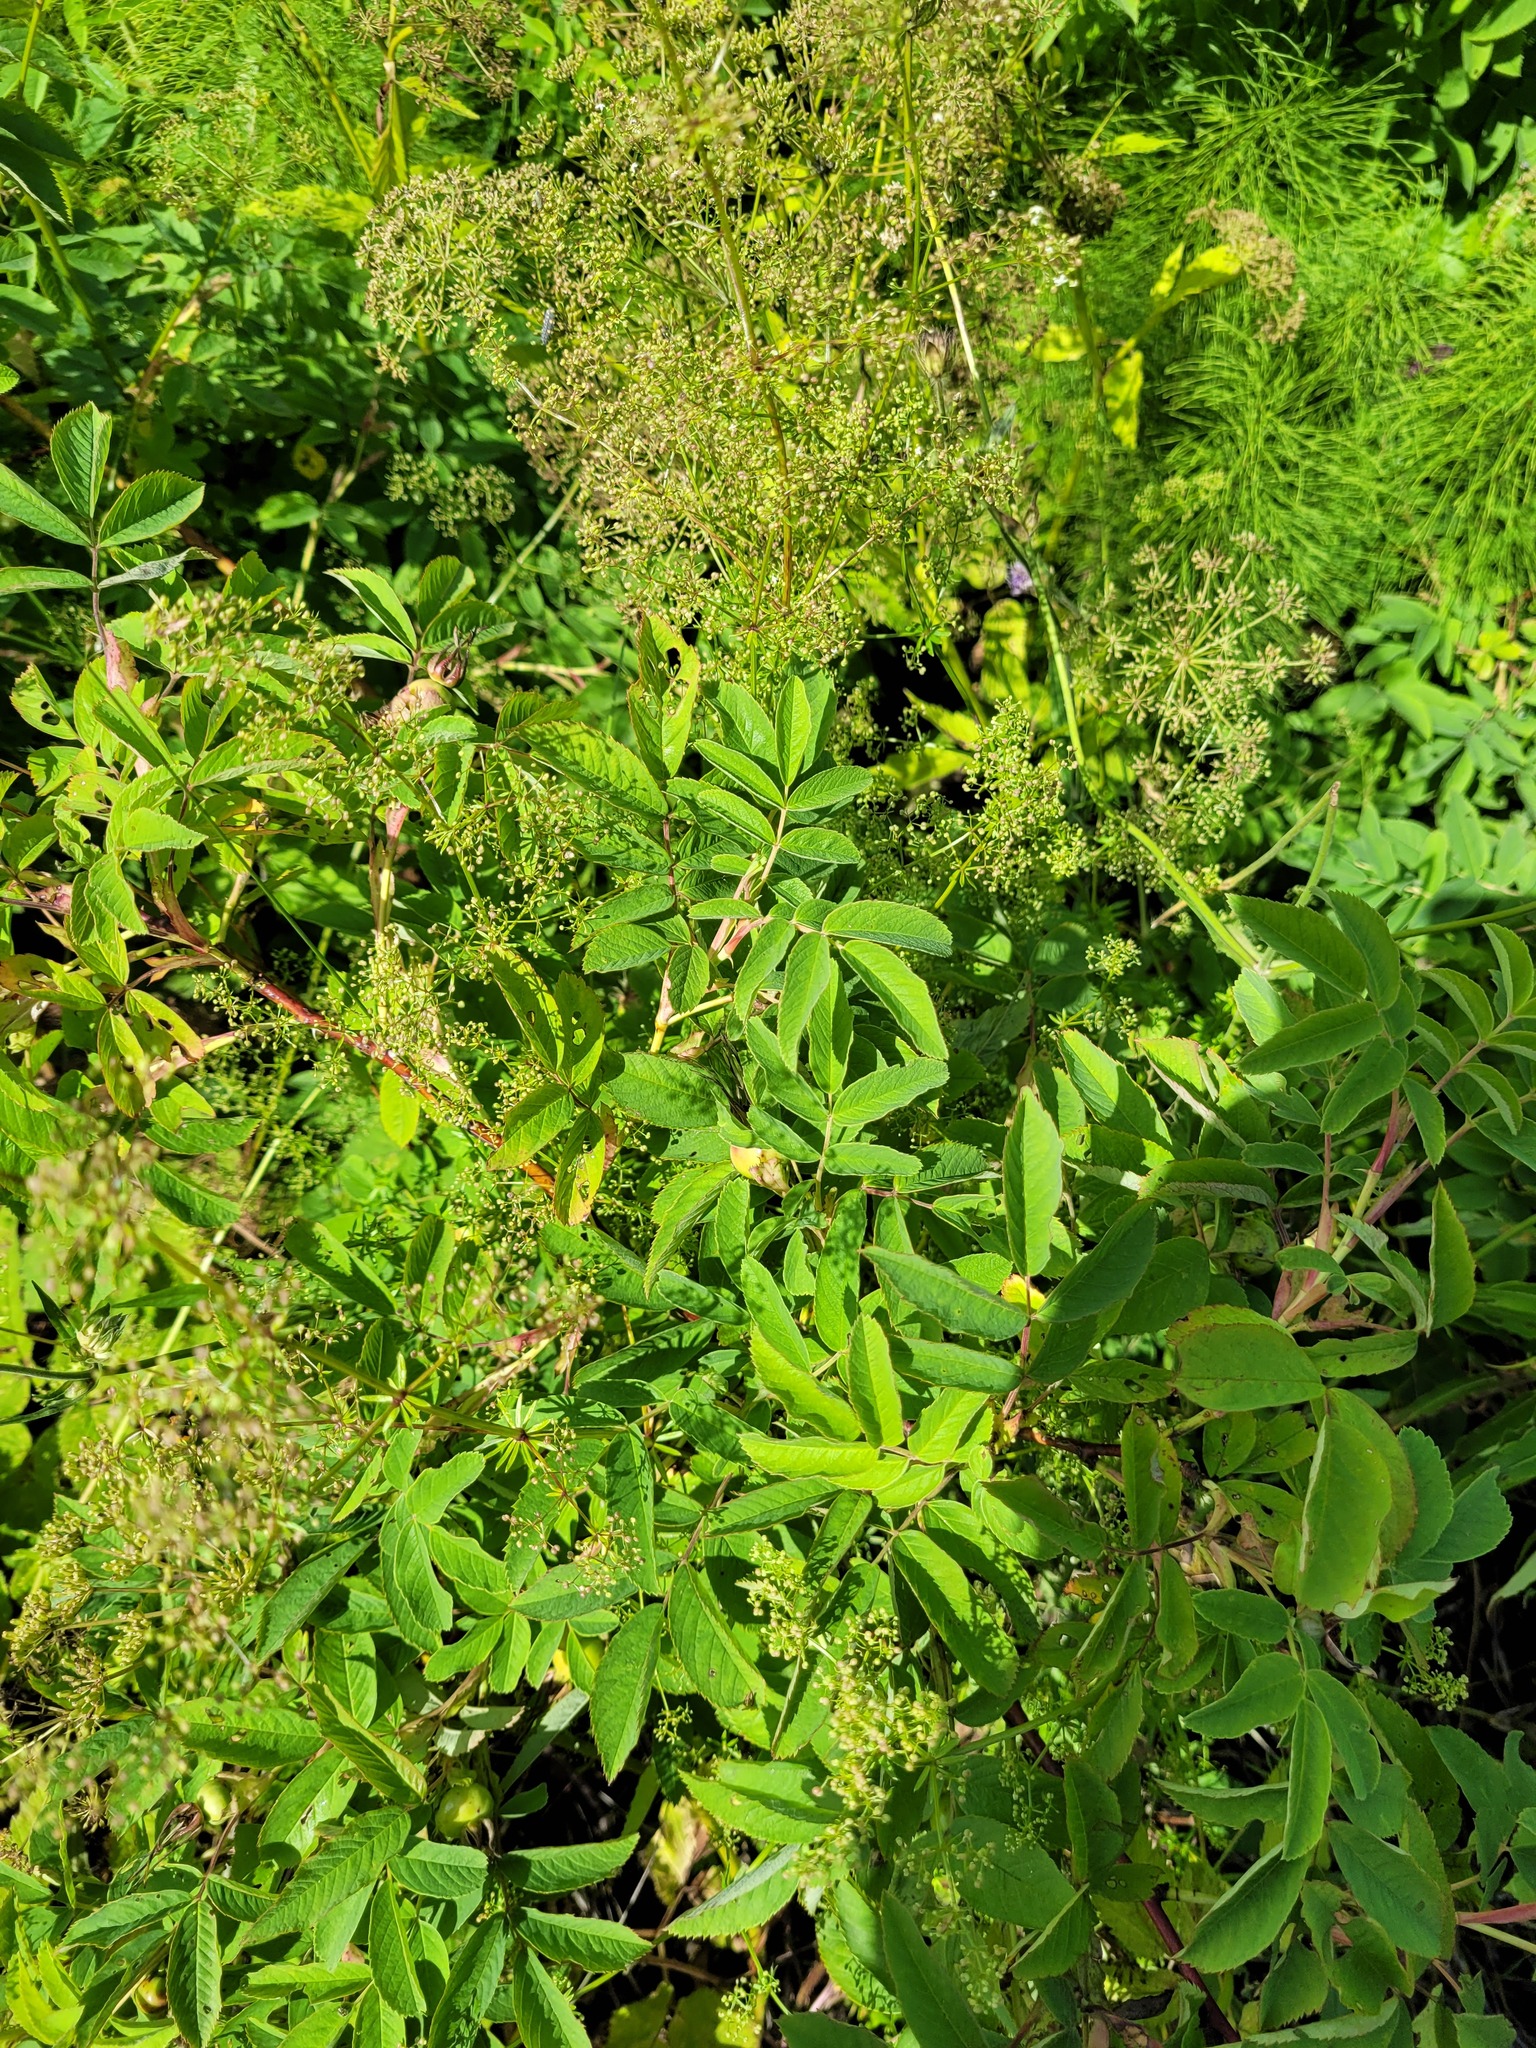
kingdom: Plantae
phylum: Tracheophyta
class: Magnoliopsida
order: Rosales
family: Rosaceae
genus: Rosa
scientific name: Rosa majalis
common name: Cinnamon rose
